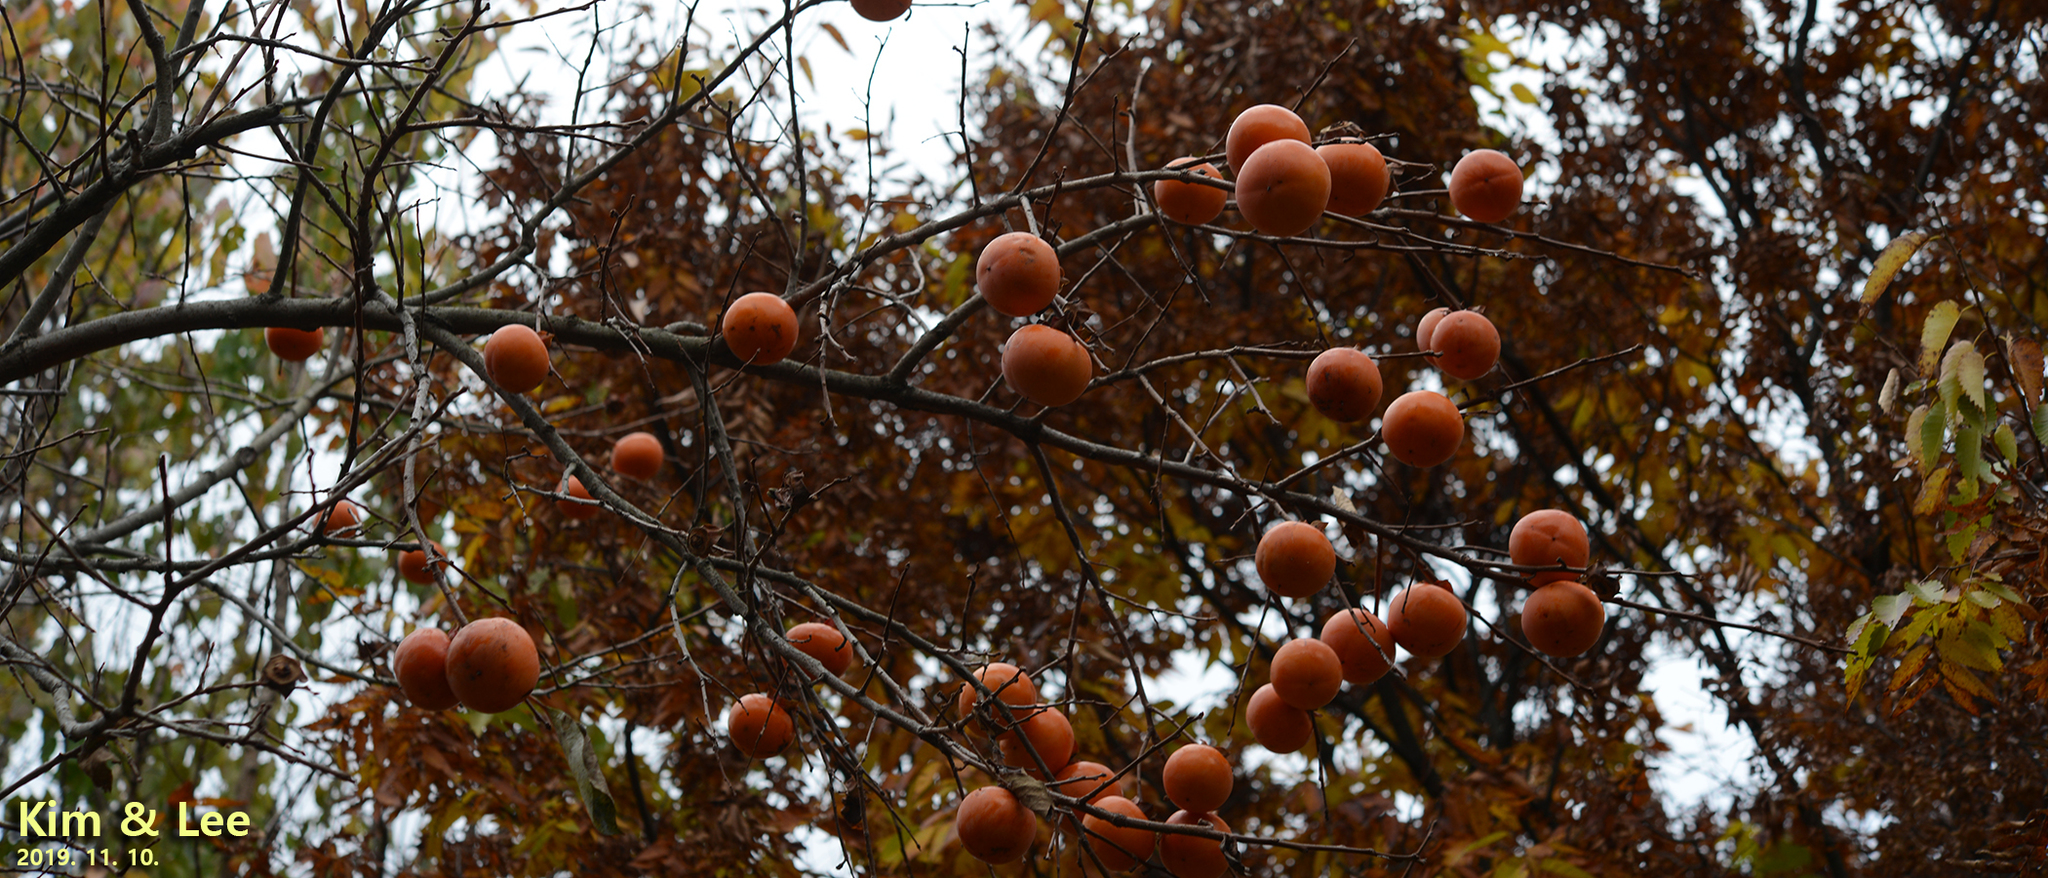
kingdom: Plantae
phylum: Tracheophyta
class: Magnoliopsida
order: Ericales
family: Ebenaceae
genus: Diospyros
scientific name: Diospyros kaki
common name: Persimmon
